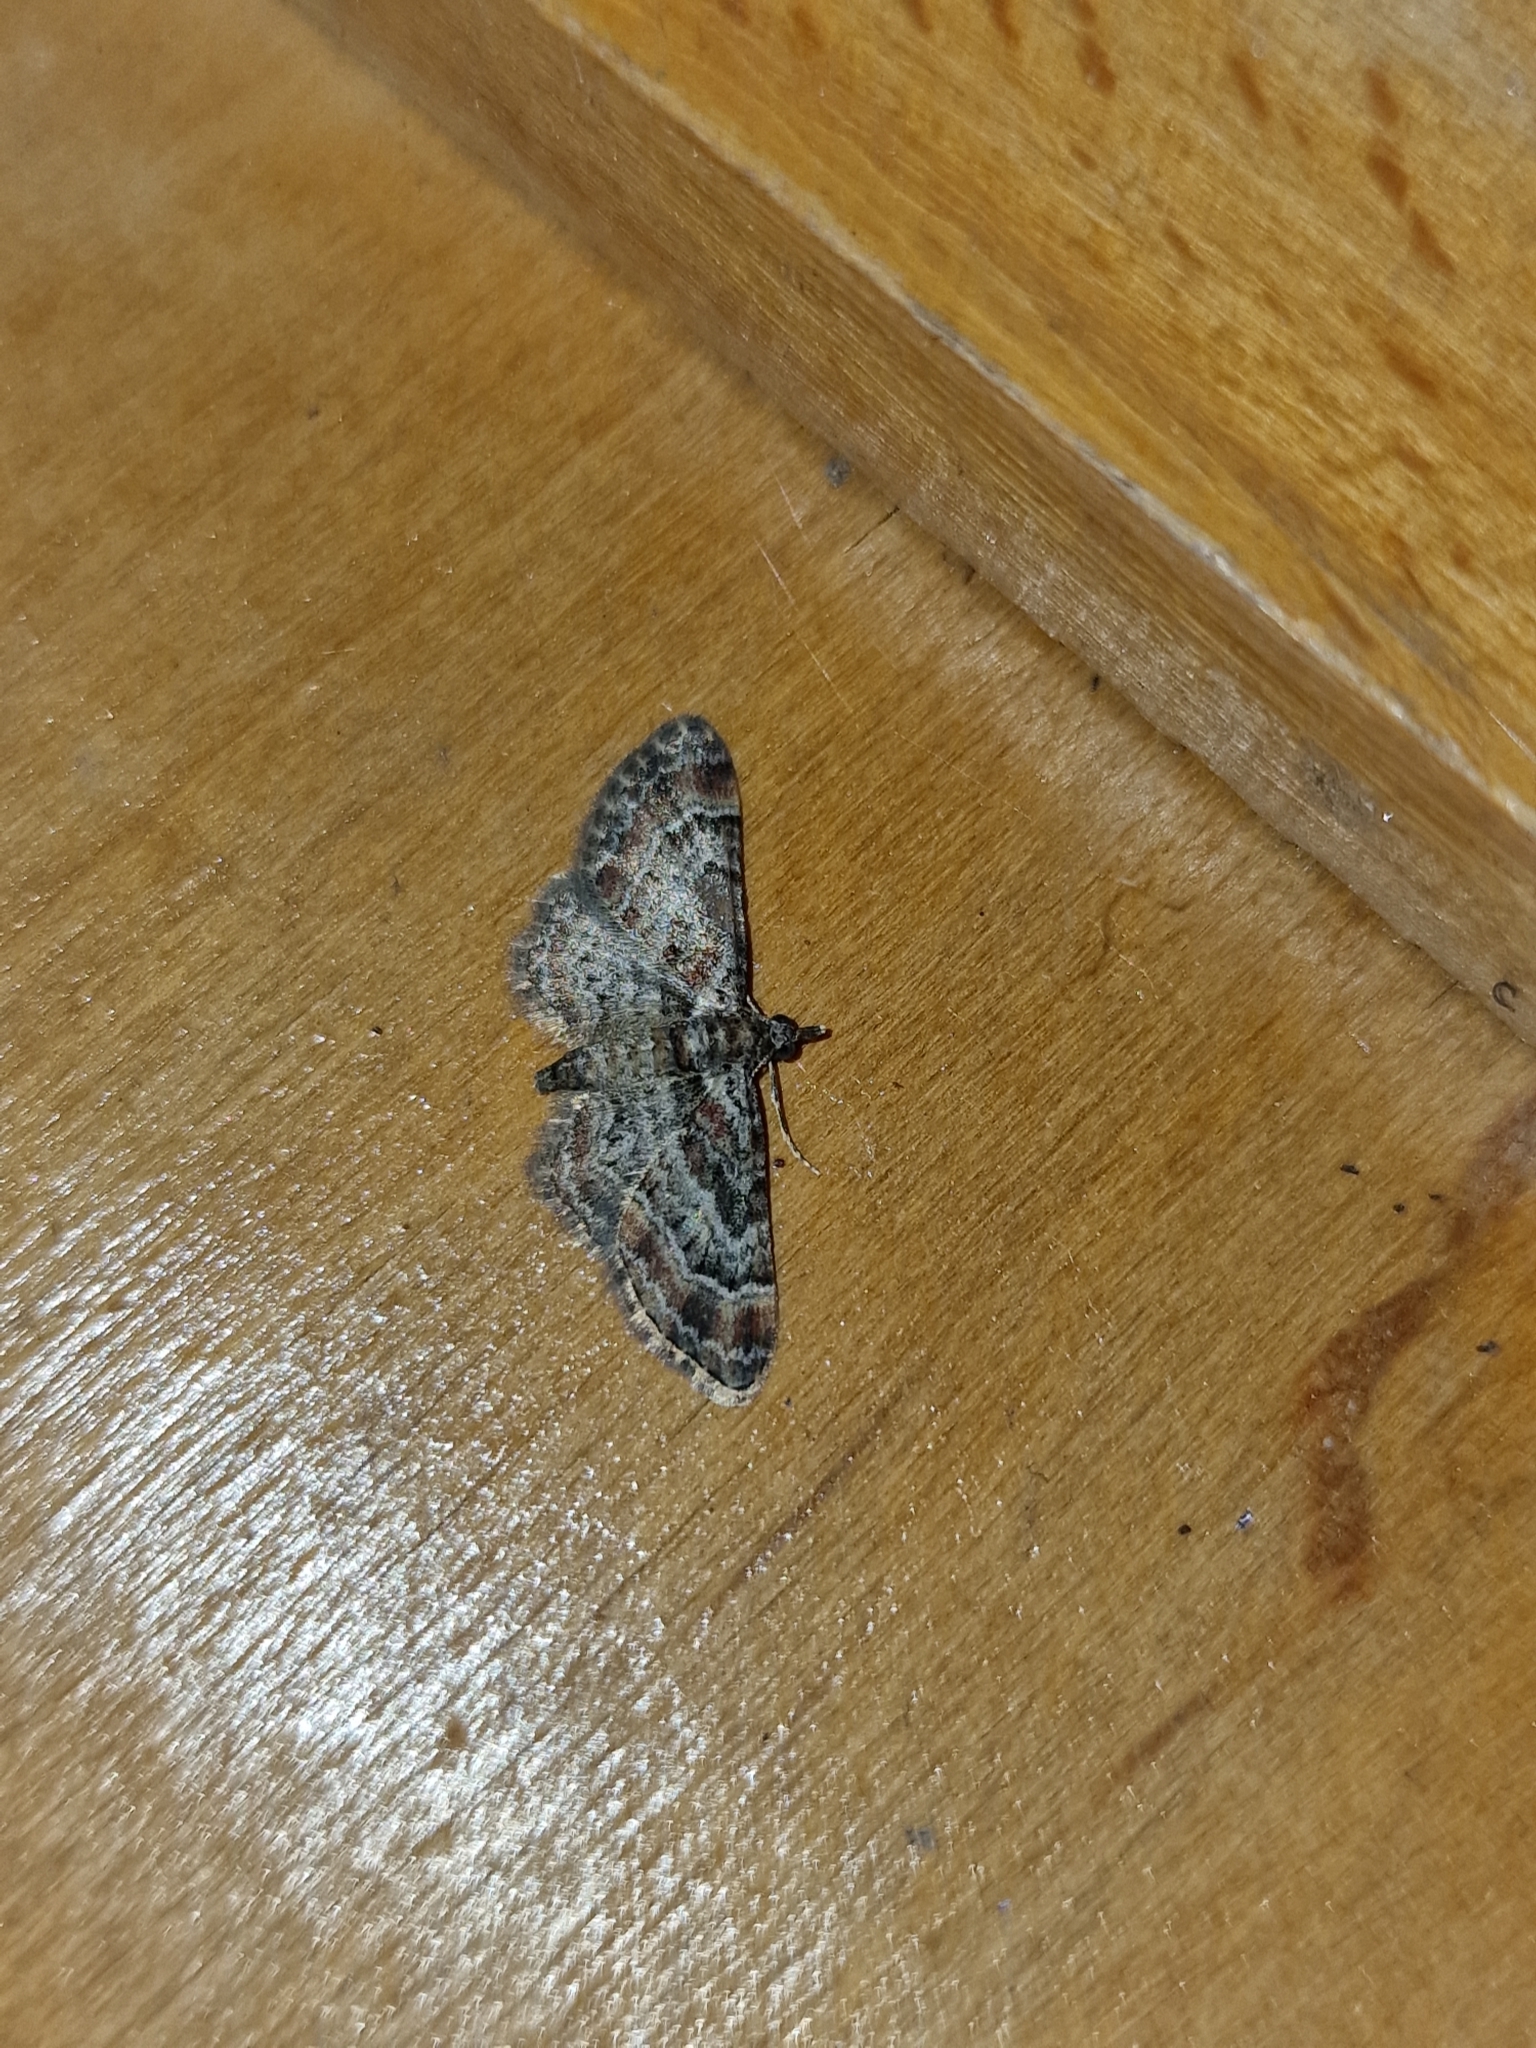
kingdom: Animalia
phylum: Arthropoda
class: Insecta
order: Lepidoptera
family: Geometridae
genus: Gymnoscelis
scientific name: Gymnoscelis rufifasciata
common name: Double-striped pug
